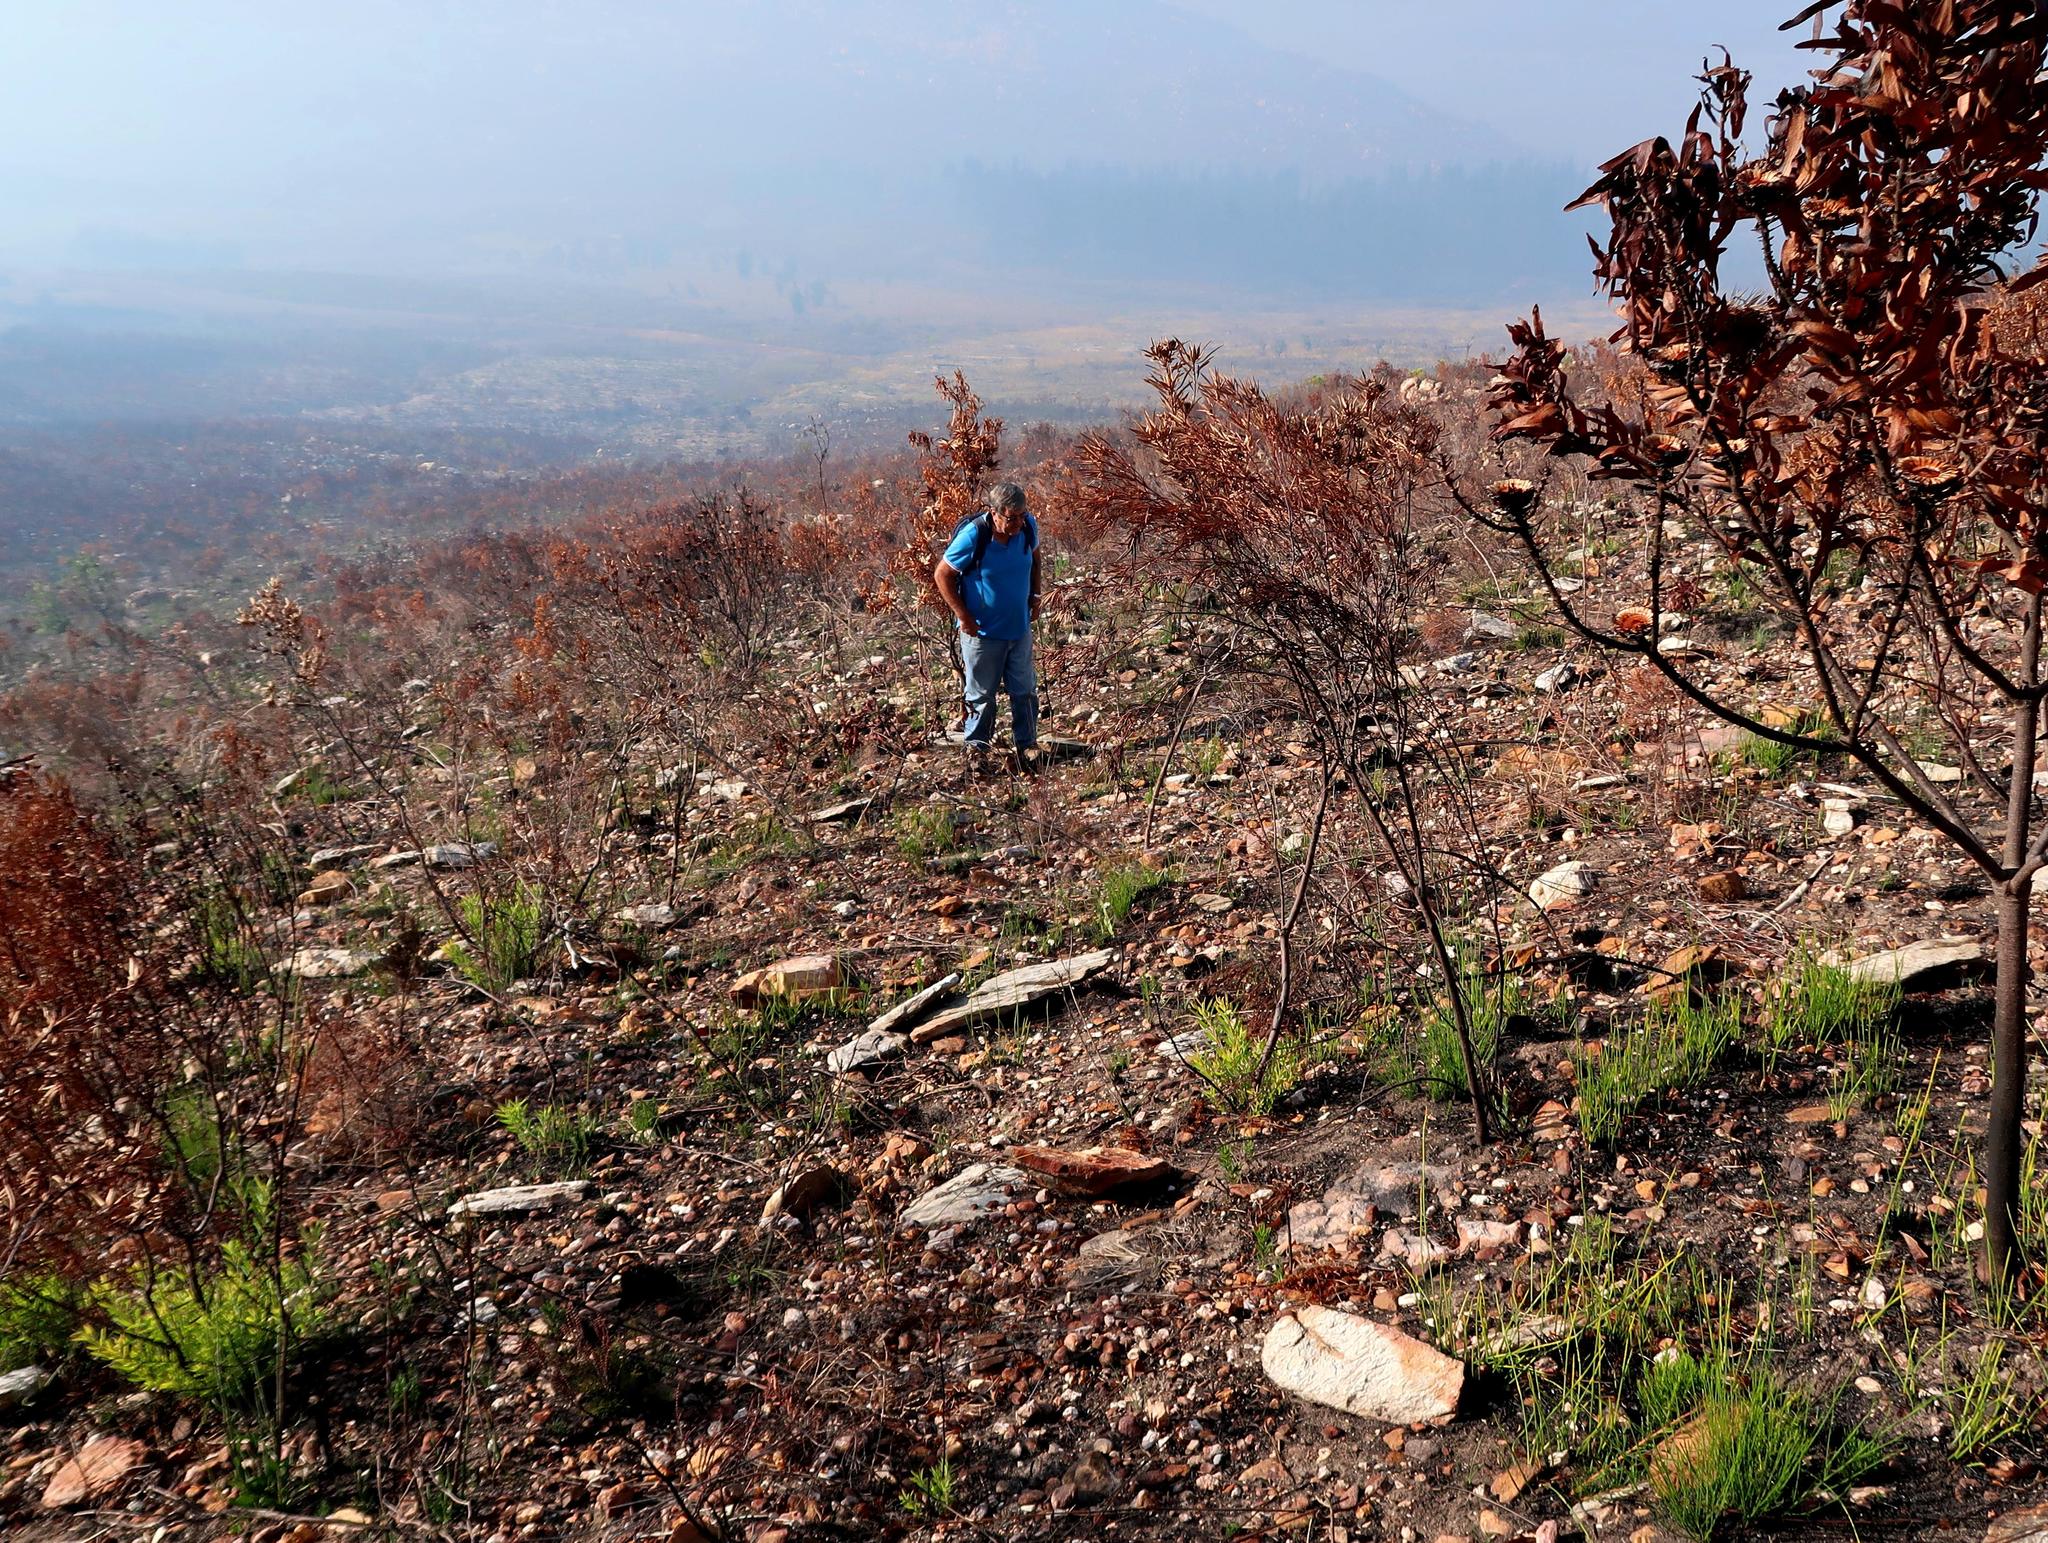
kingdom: Plantae
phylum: Tracheophyta
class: Magnoliopsida
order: Fabales
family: Fabaceae
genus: Psoralea
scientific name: Psoralea diturnerae
